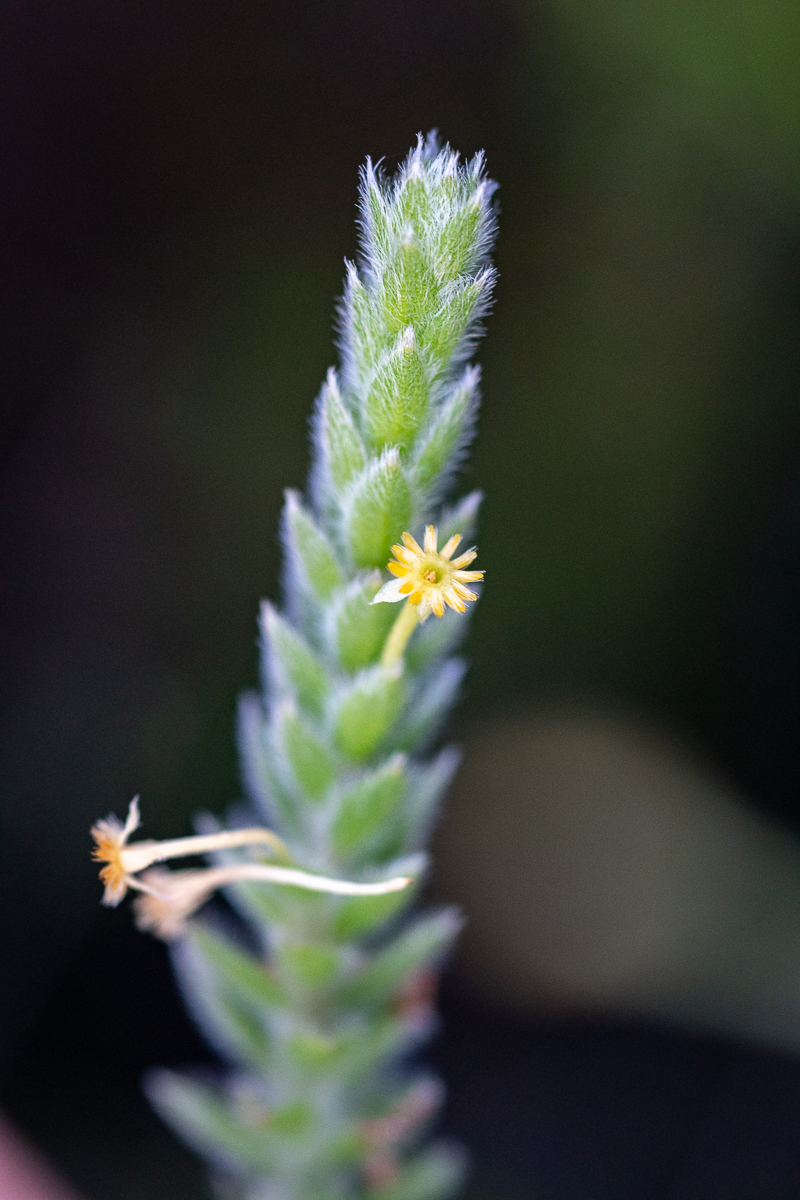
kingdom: Plantae
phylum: Tracheophyta
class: Magnoliopsida
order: Malvales
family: Thymelaeaceae
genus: Struthiola
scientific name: Struthiola tomentosa
